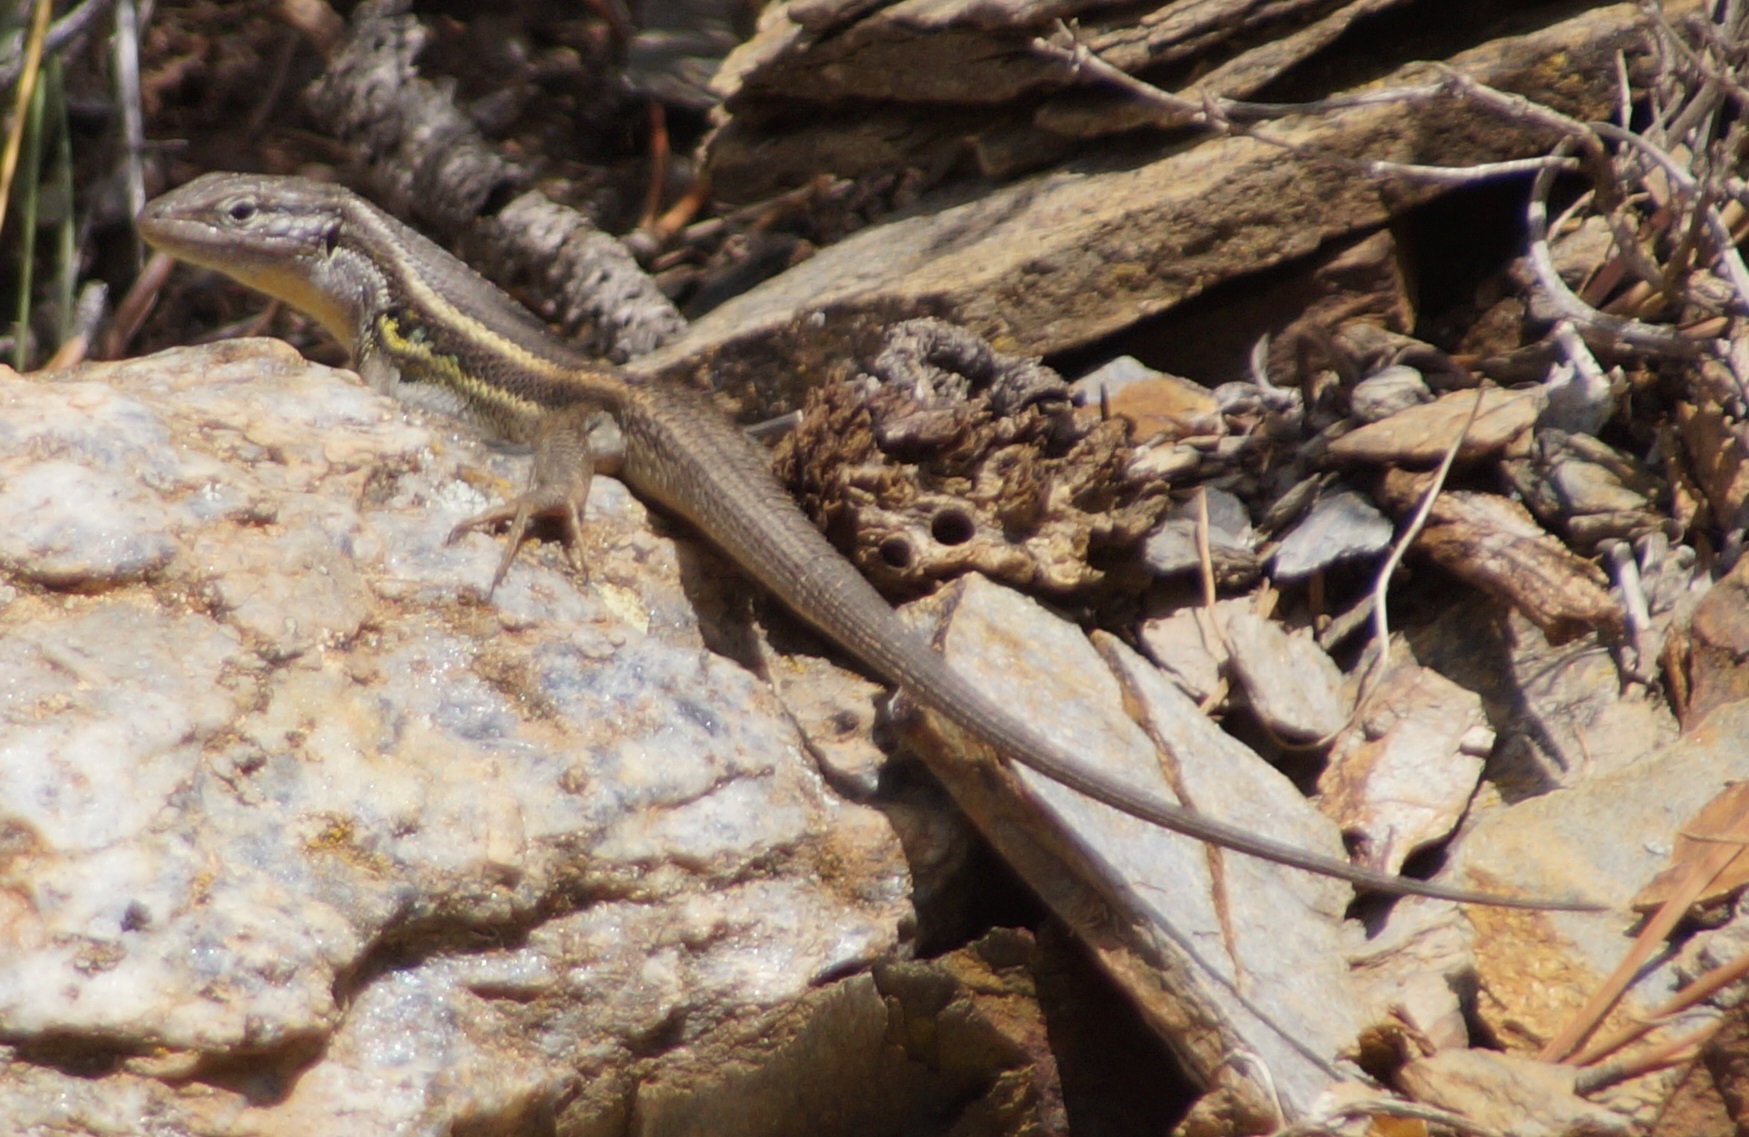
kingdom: Animalia
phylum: Chordata
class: Squamata
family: Lacertidae
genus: Psammodromus
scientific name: Psammodromus algirus
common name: Algerian psammodromus
